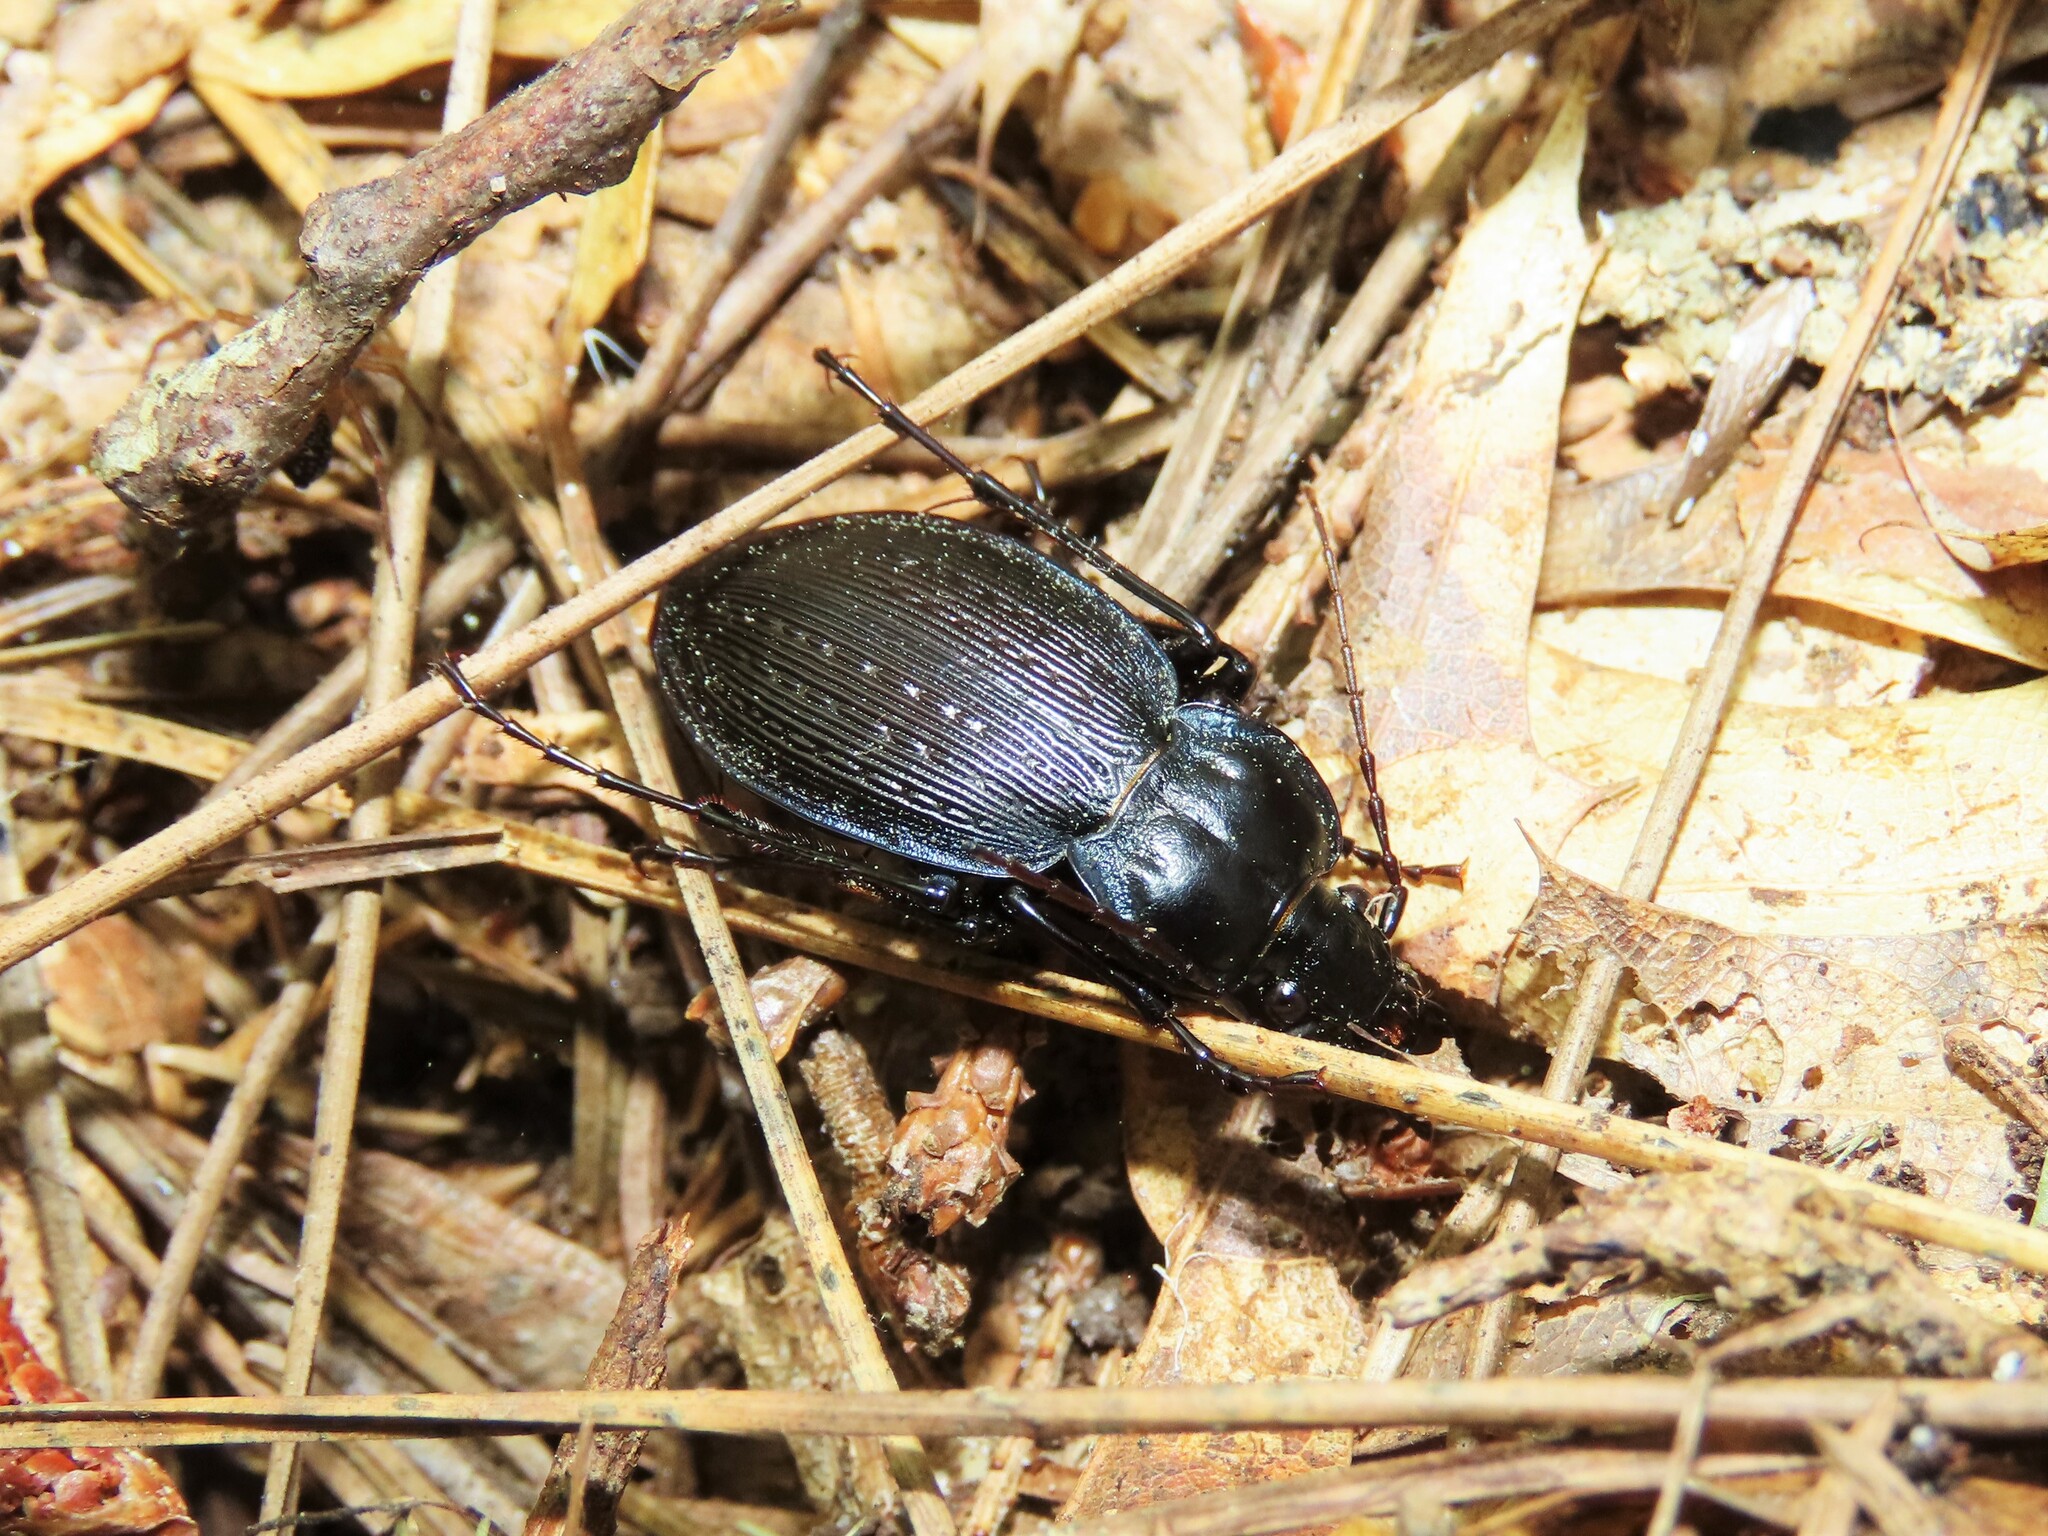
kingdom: Animalia
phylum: Arthropoda
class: Insecta
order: Coleoptera
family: Carabidae
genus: Carabus
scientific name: Carabus goryi
